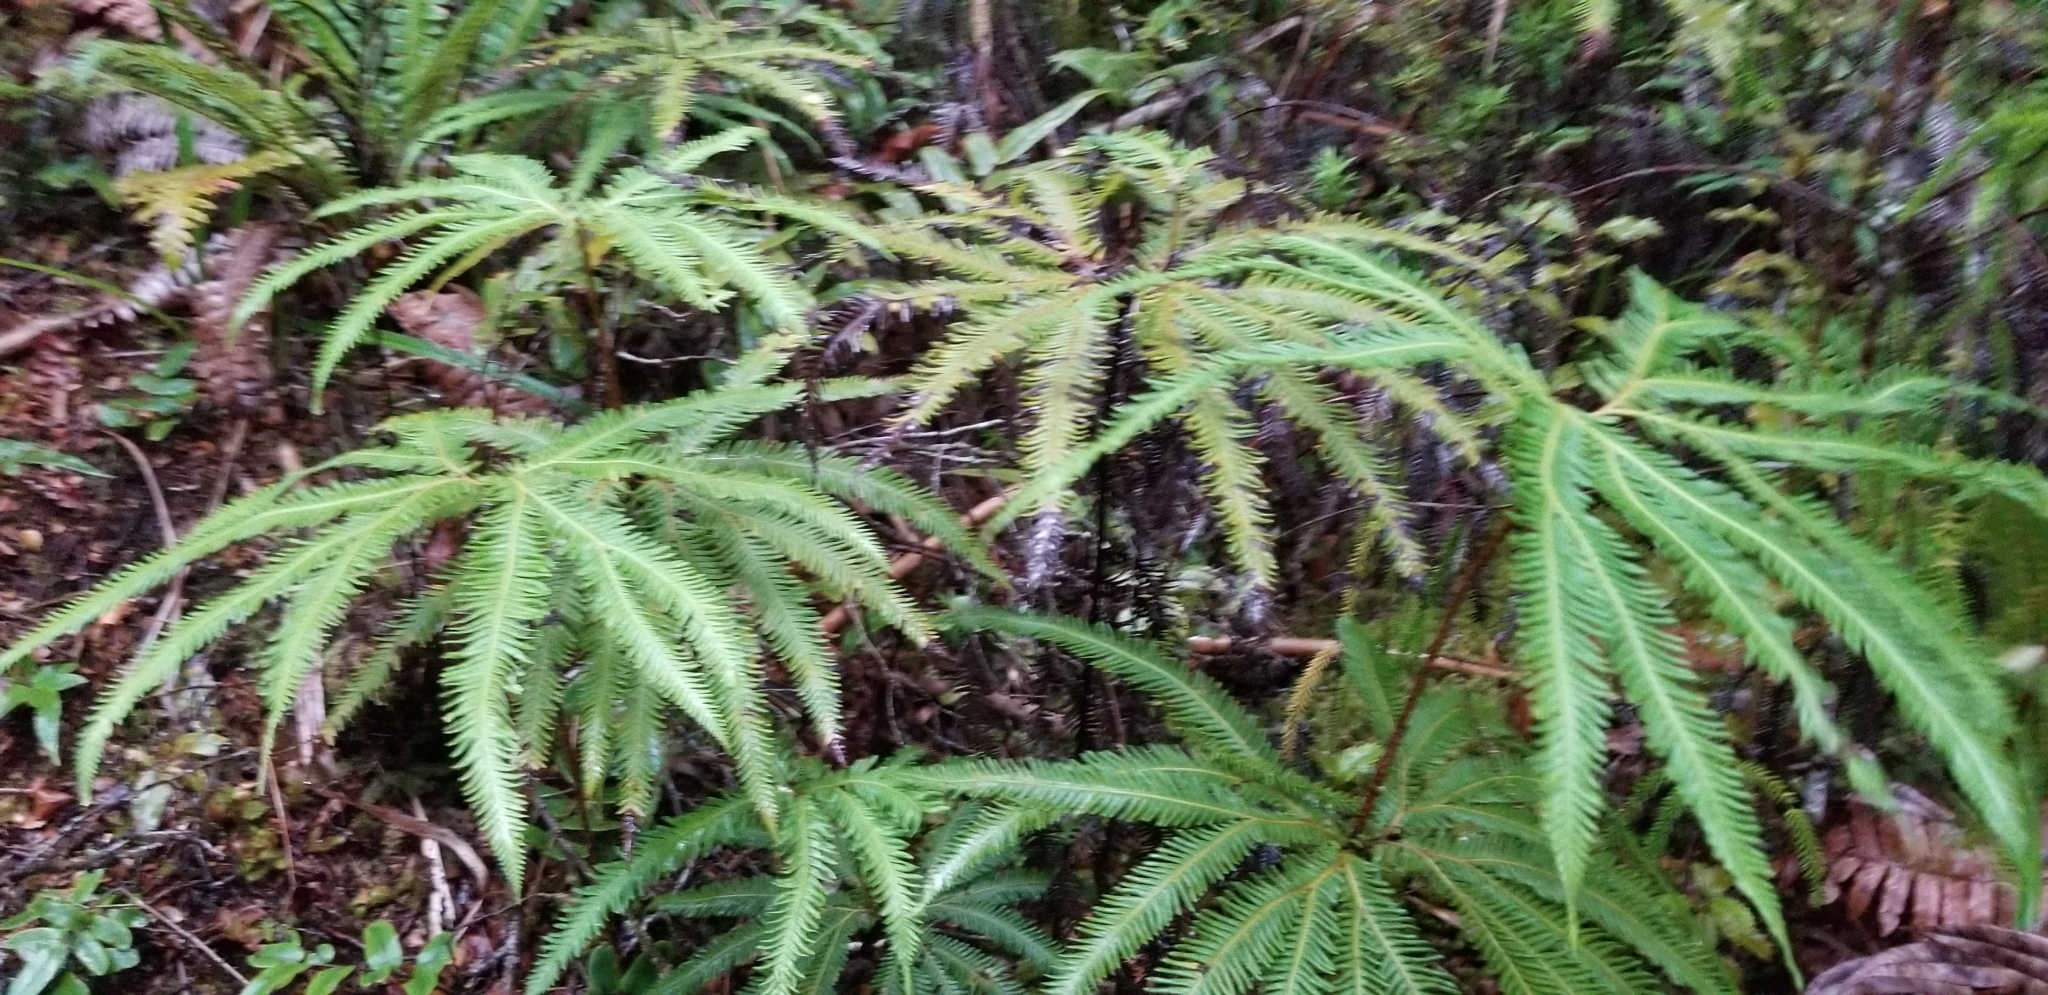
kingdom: Plantae
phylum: Tracheophyta
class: Polypodiopsida
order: Gleicheniales
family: Gleicheniaceae
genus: Sticherus
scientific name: Sticherus cunninghamii
